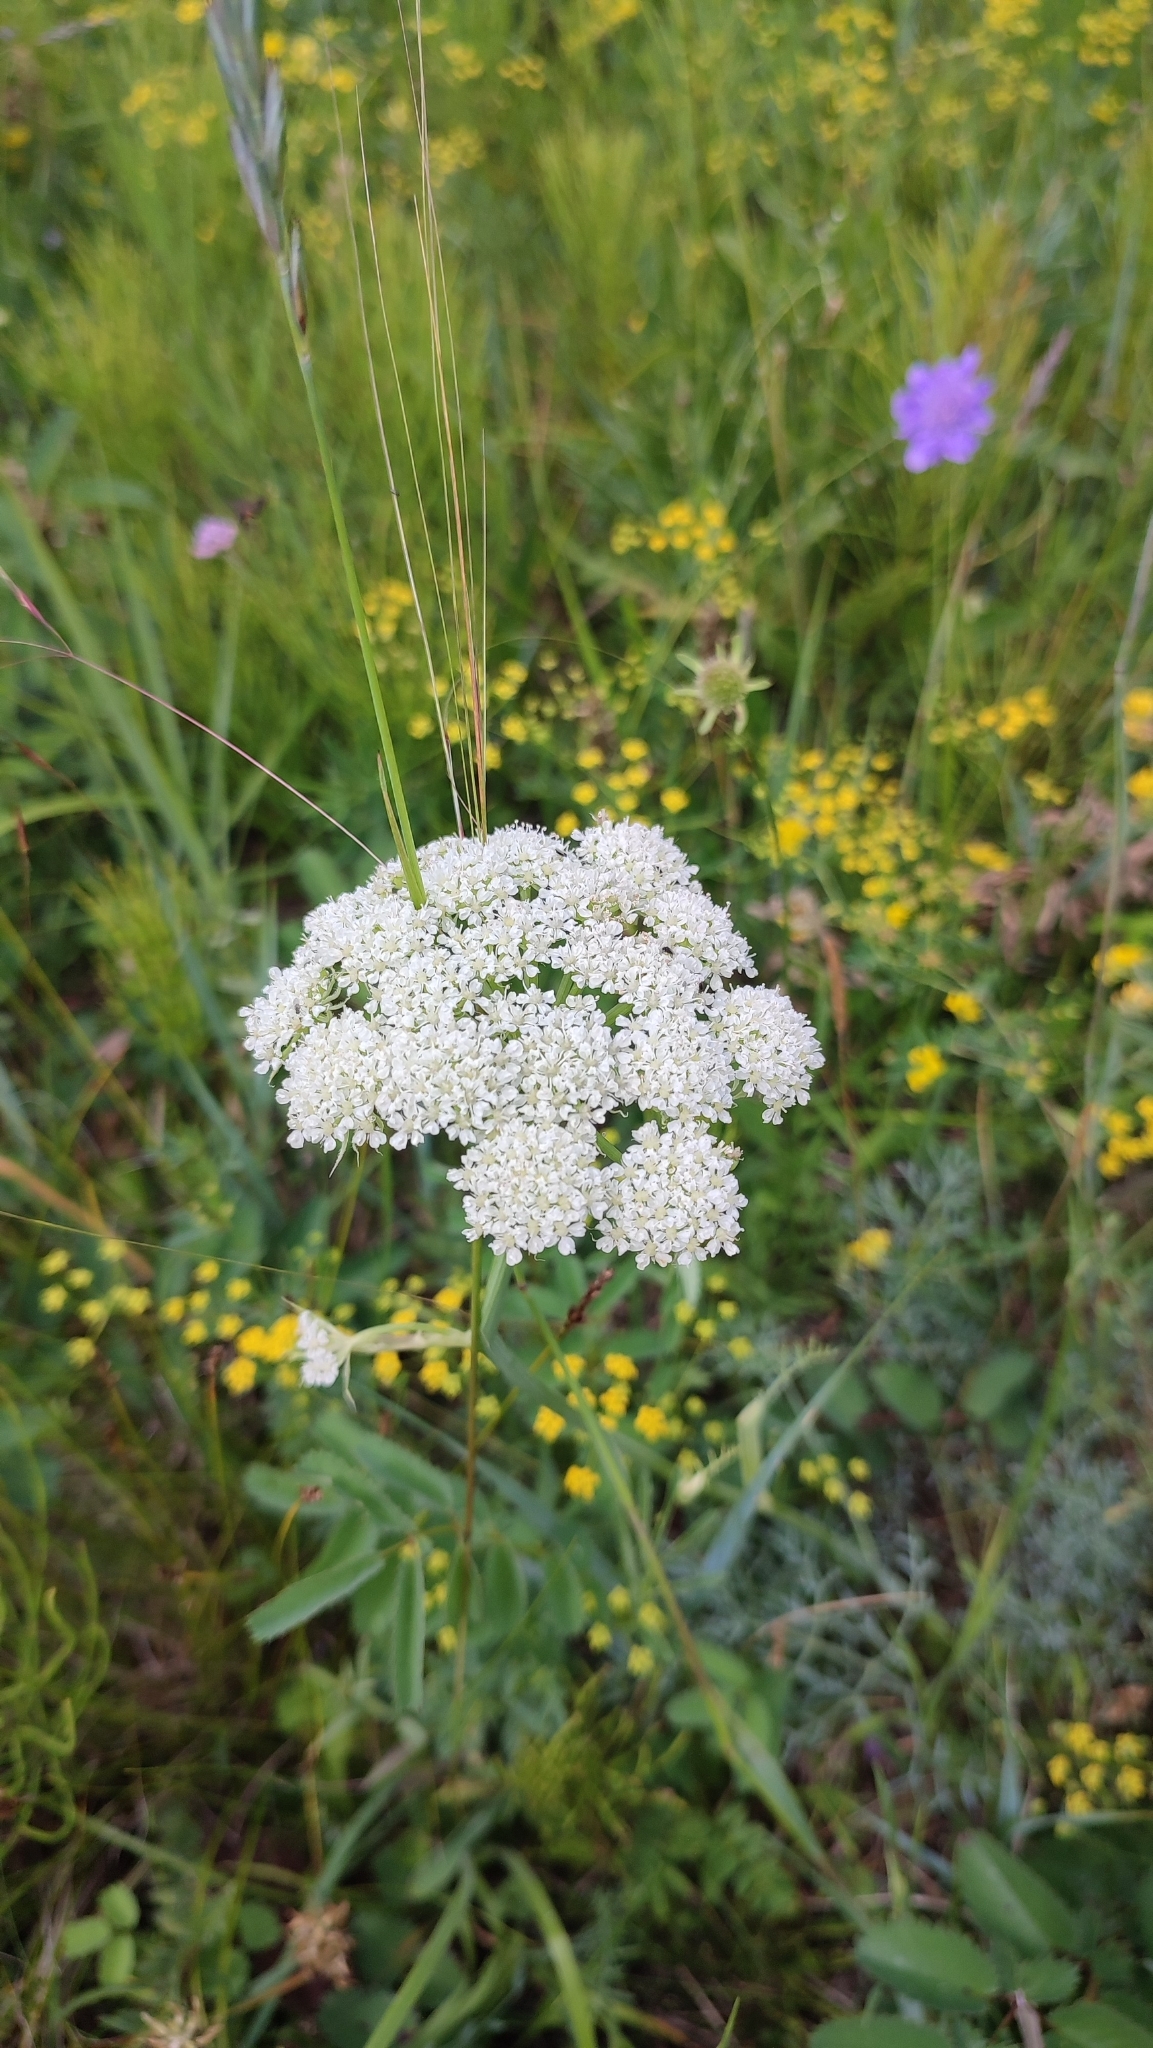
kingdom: Plantae
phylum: Tracheophyta
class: Magnoliopsida
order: Apiales
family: Apiaceae
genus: Phlojodicarpus
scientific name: Phlojodicarpus sibiricus
